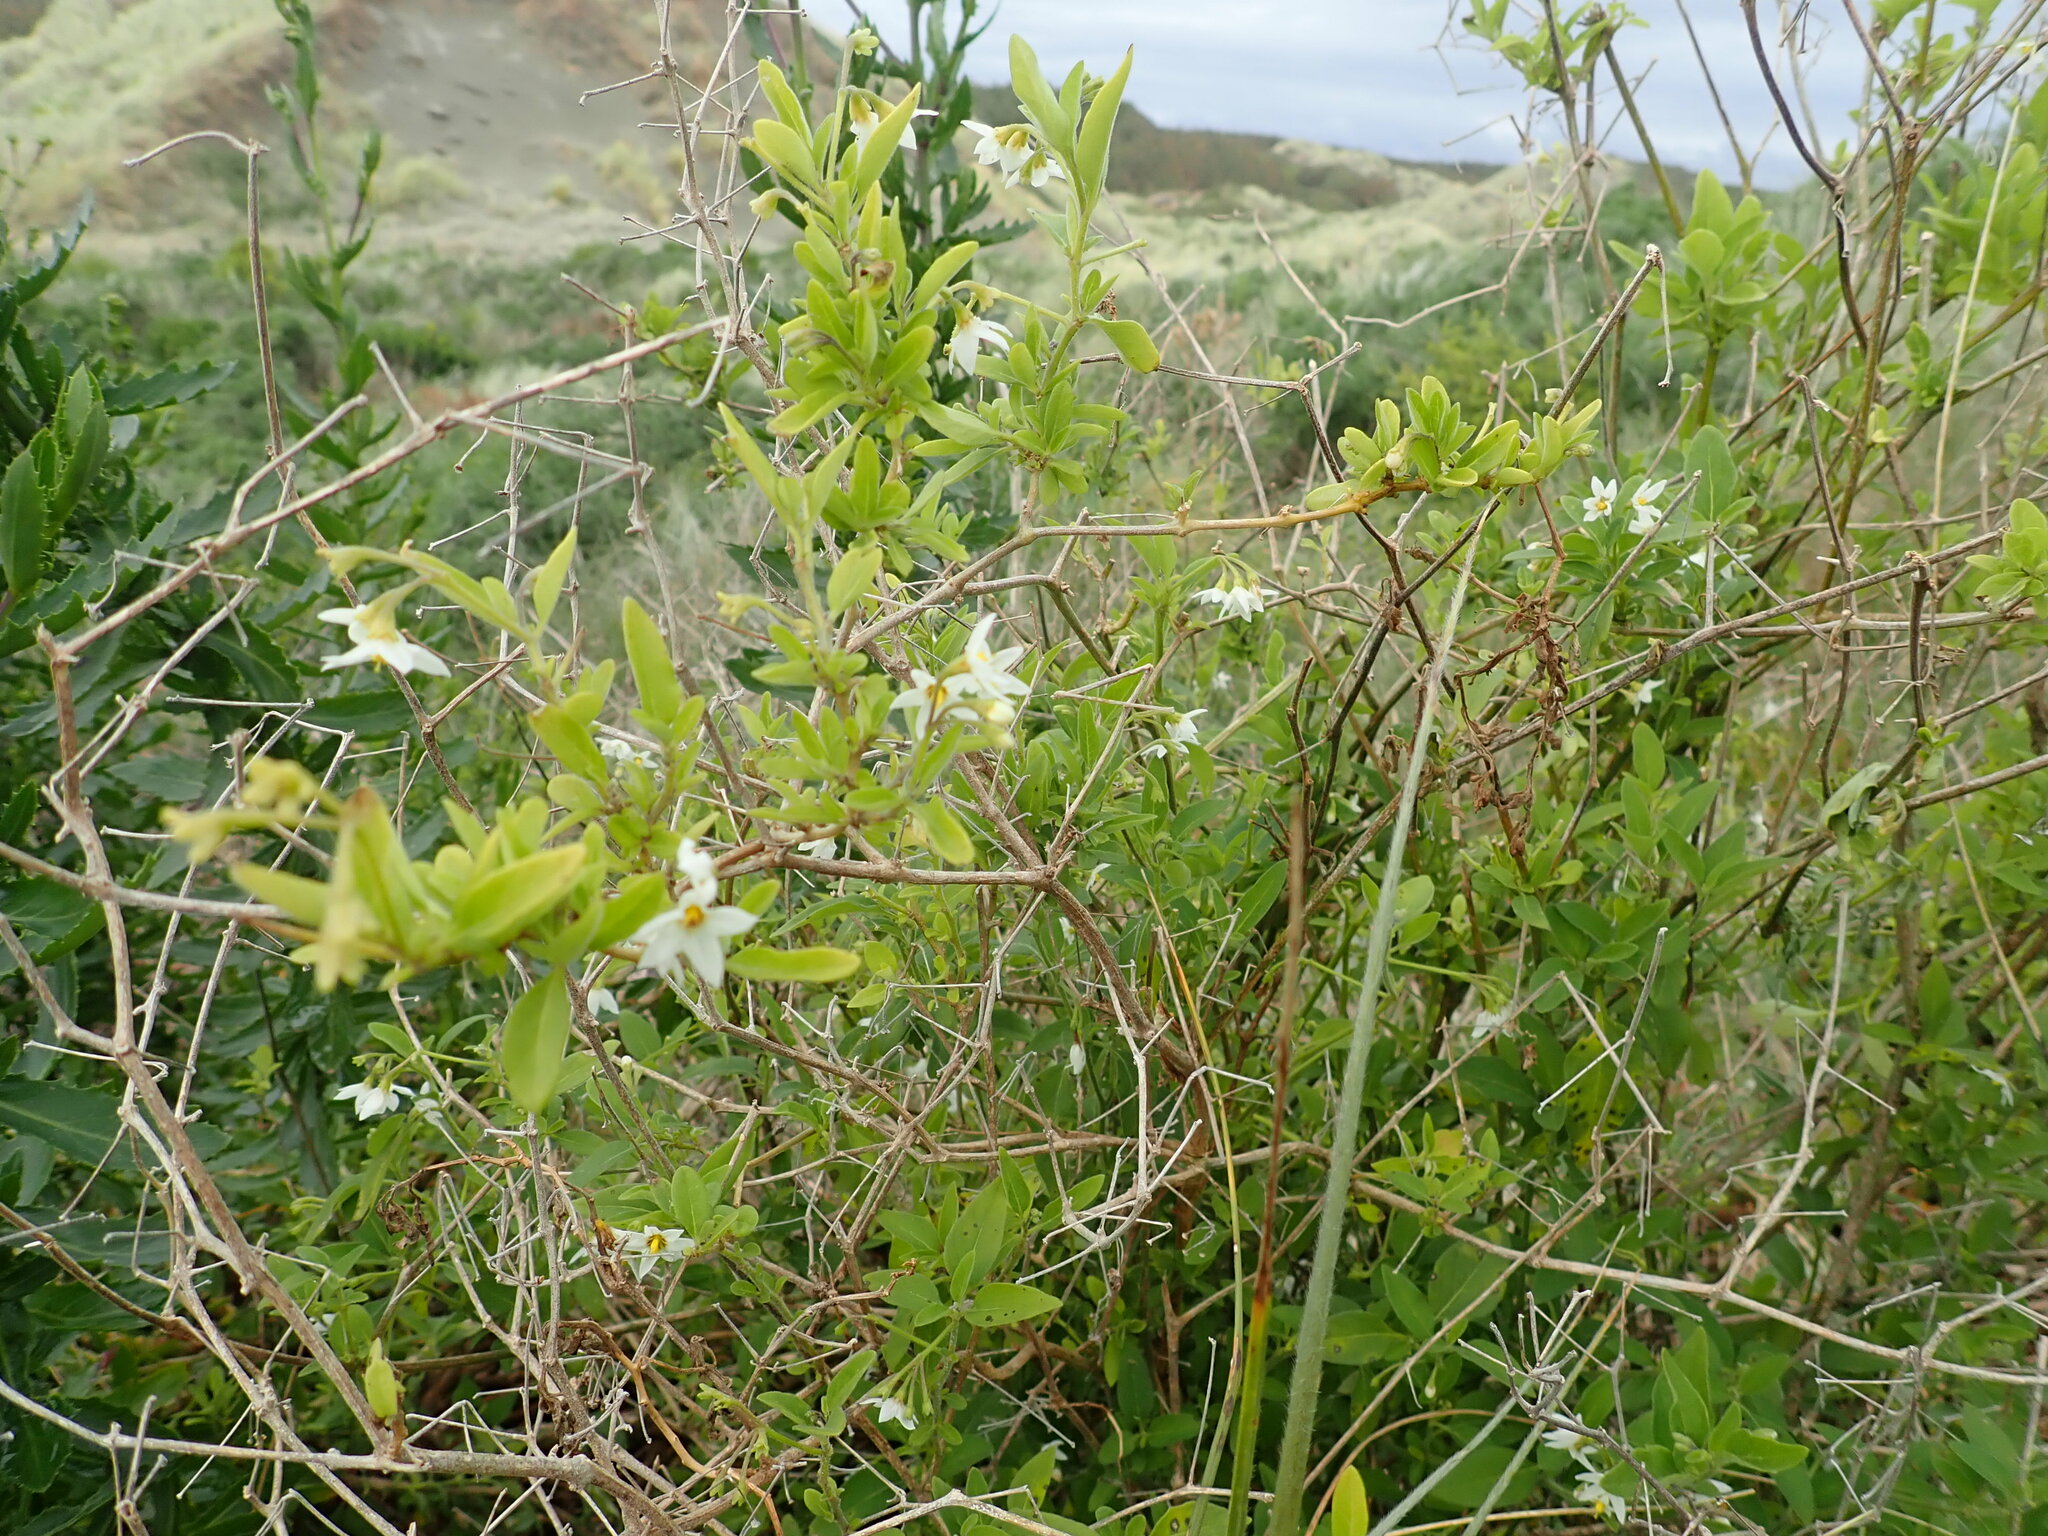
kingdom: Plantae
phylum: Tracheophyta
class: Magnoliopsida
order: Solanales
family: Solanaceae
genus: Solanum
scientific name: Solanum chenopodioides
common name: Tall nightshade
